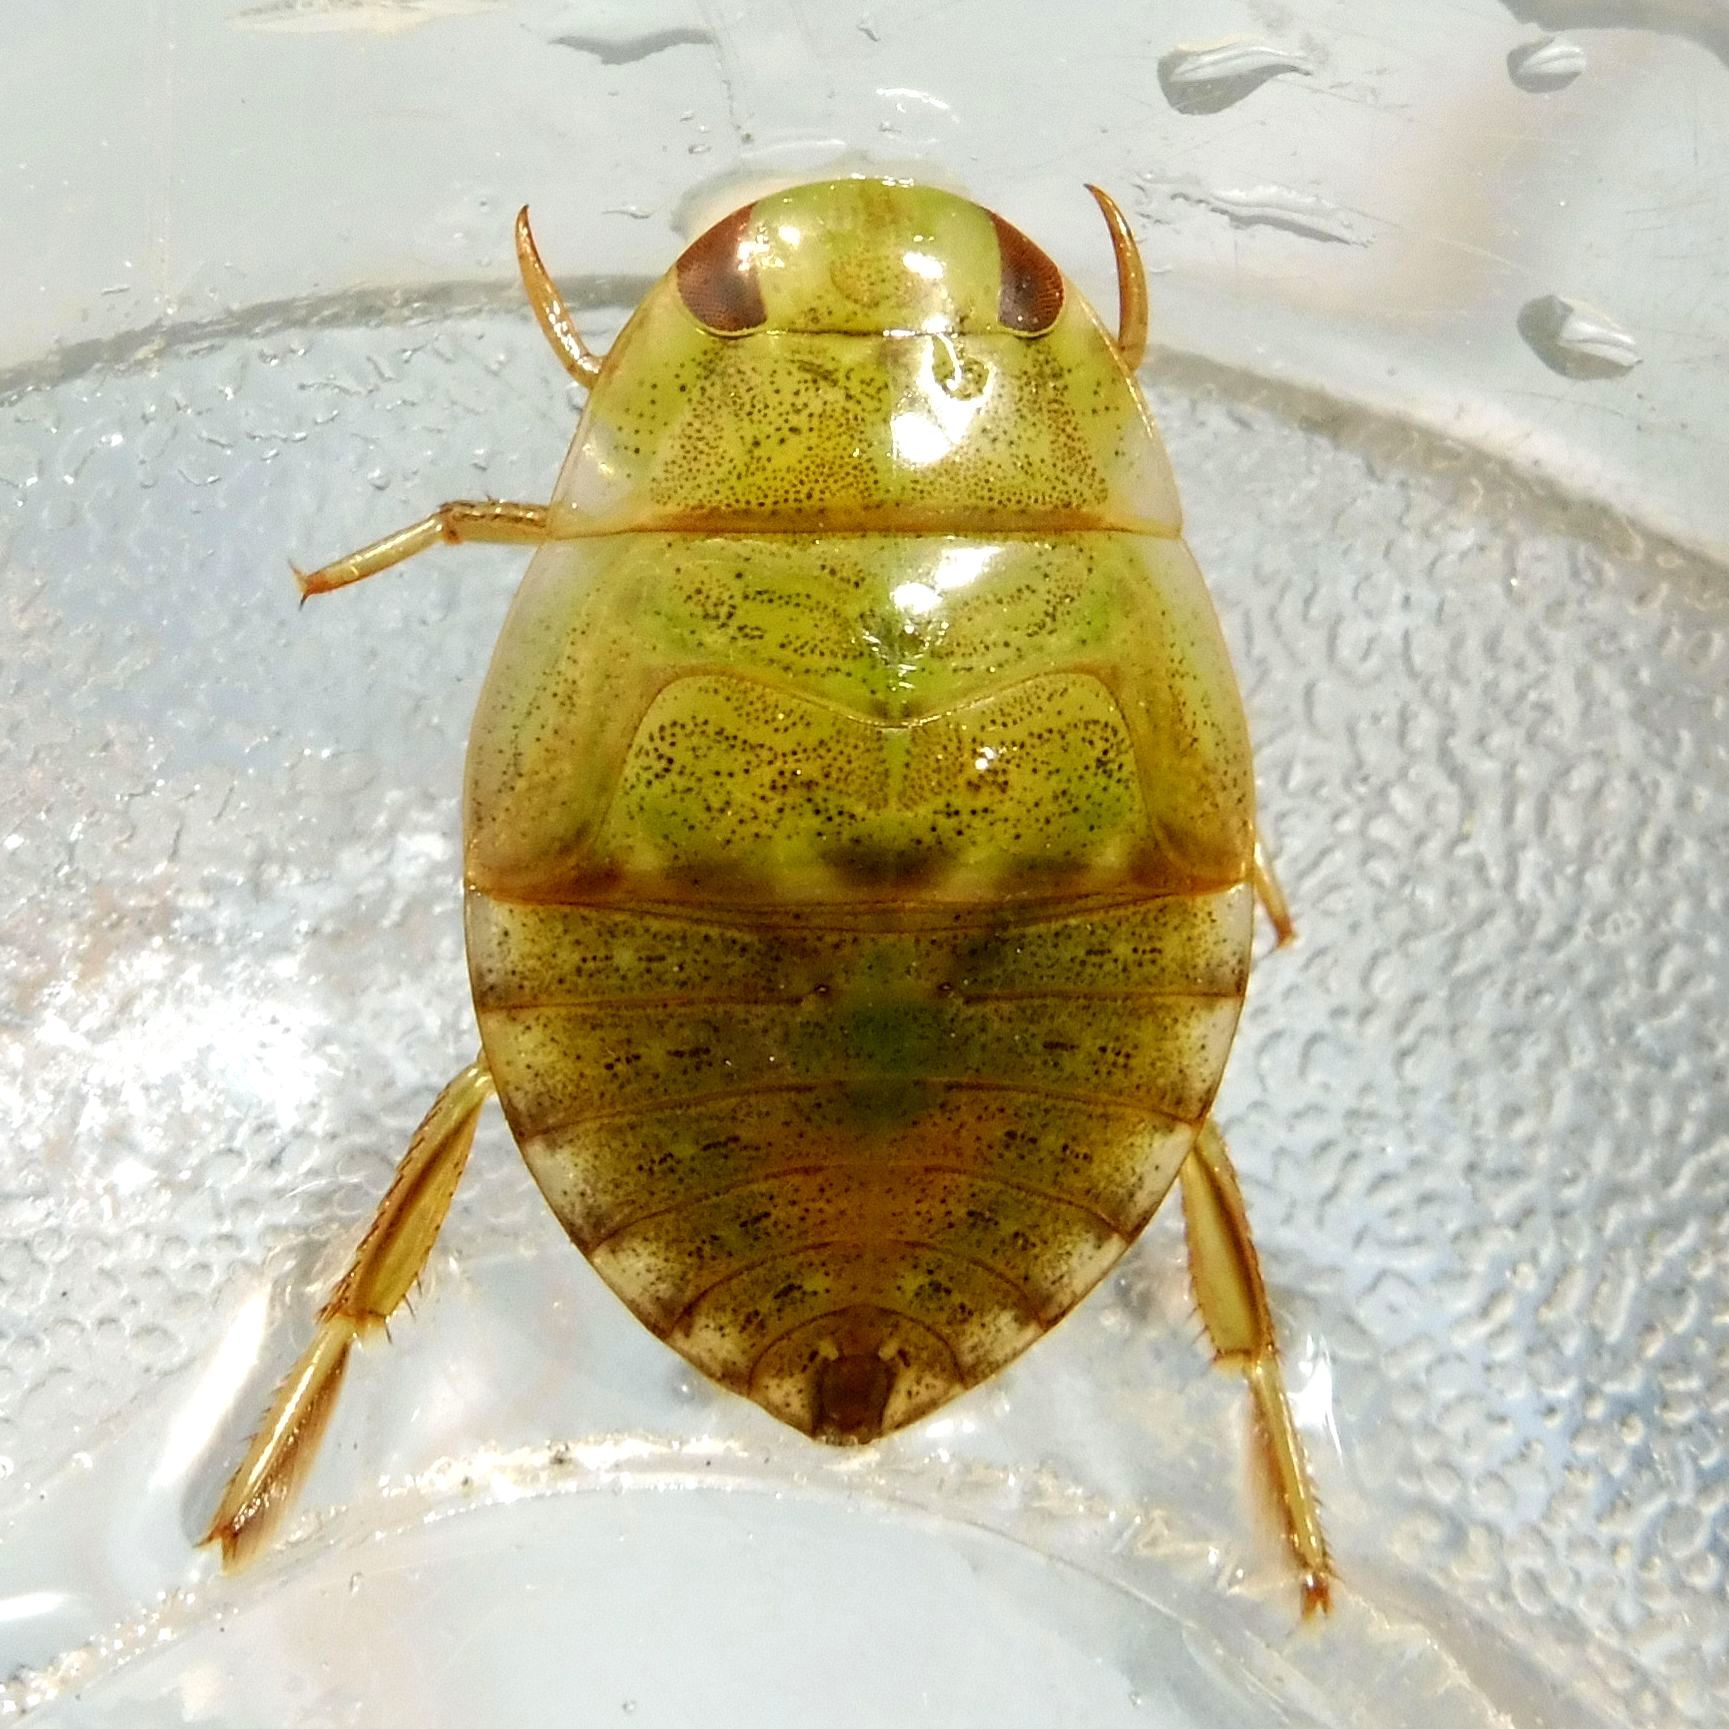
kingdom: Animalia
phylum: Arthropoda
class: Insecta
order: Hemiptera
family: Naucoridae
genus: Ilyocoris
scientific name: Ilyocoris cimicoides
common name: Saucer bugs
